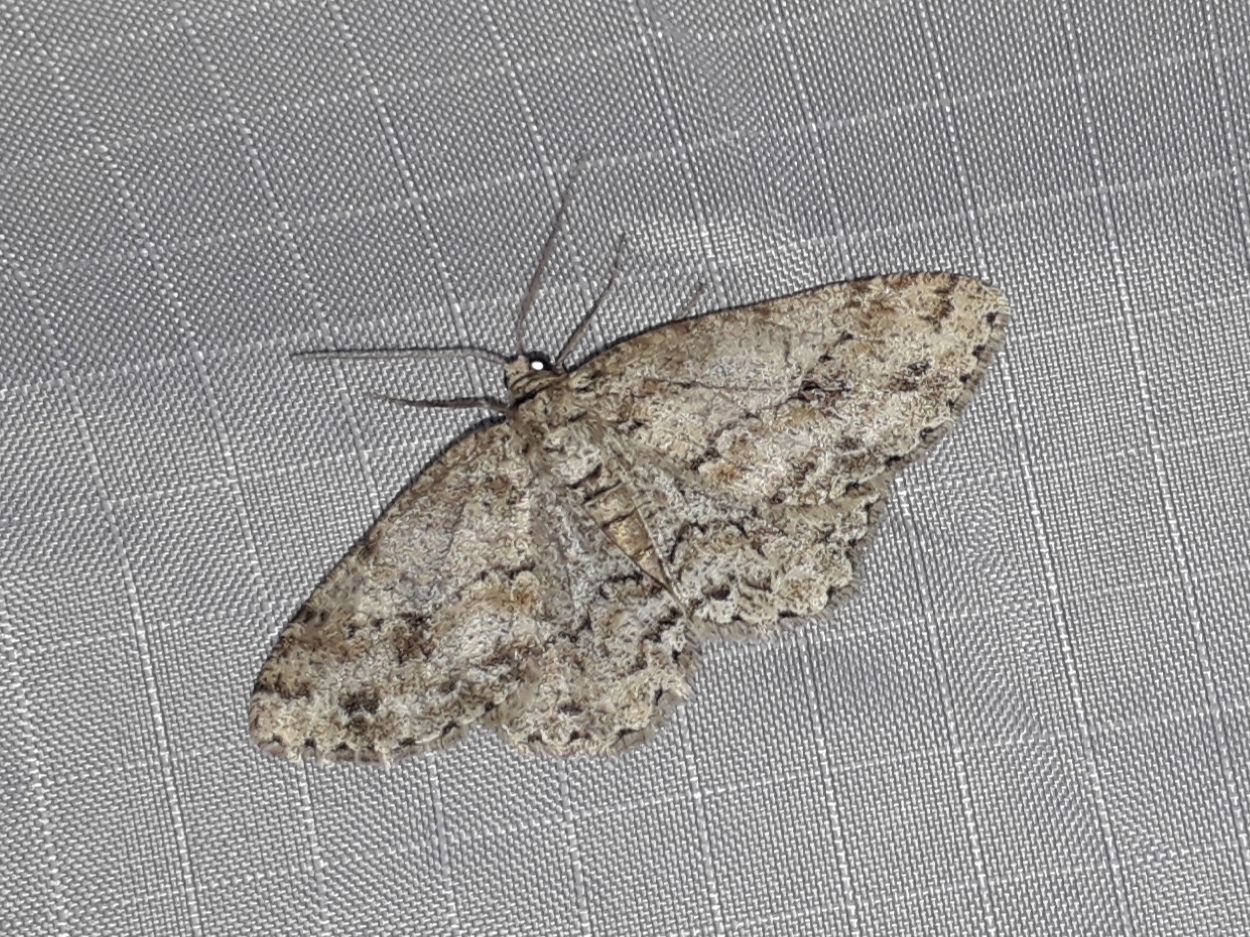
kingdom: Animalia
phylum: Arthropoda
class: Insecta
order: Lepidoptera
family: Geometridae
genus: Ectropis
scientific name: Ectropis crepuscularia
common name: Engrailed
